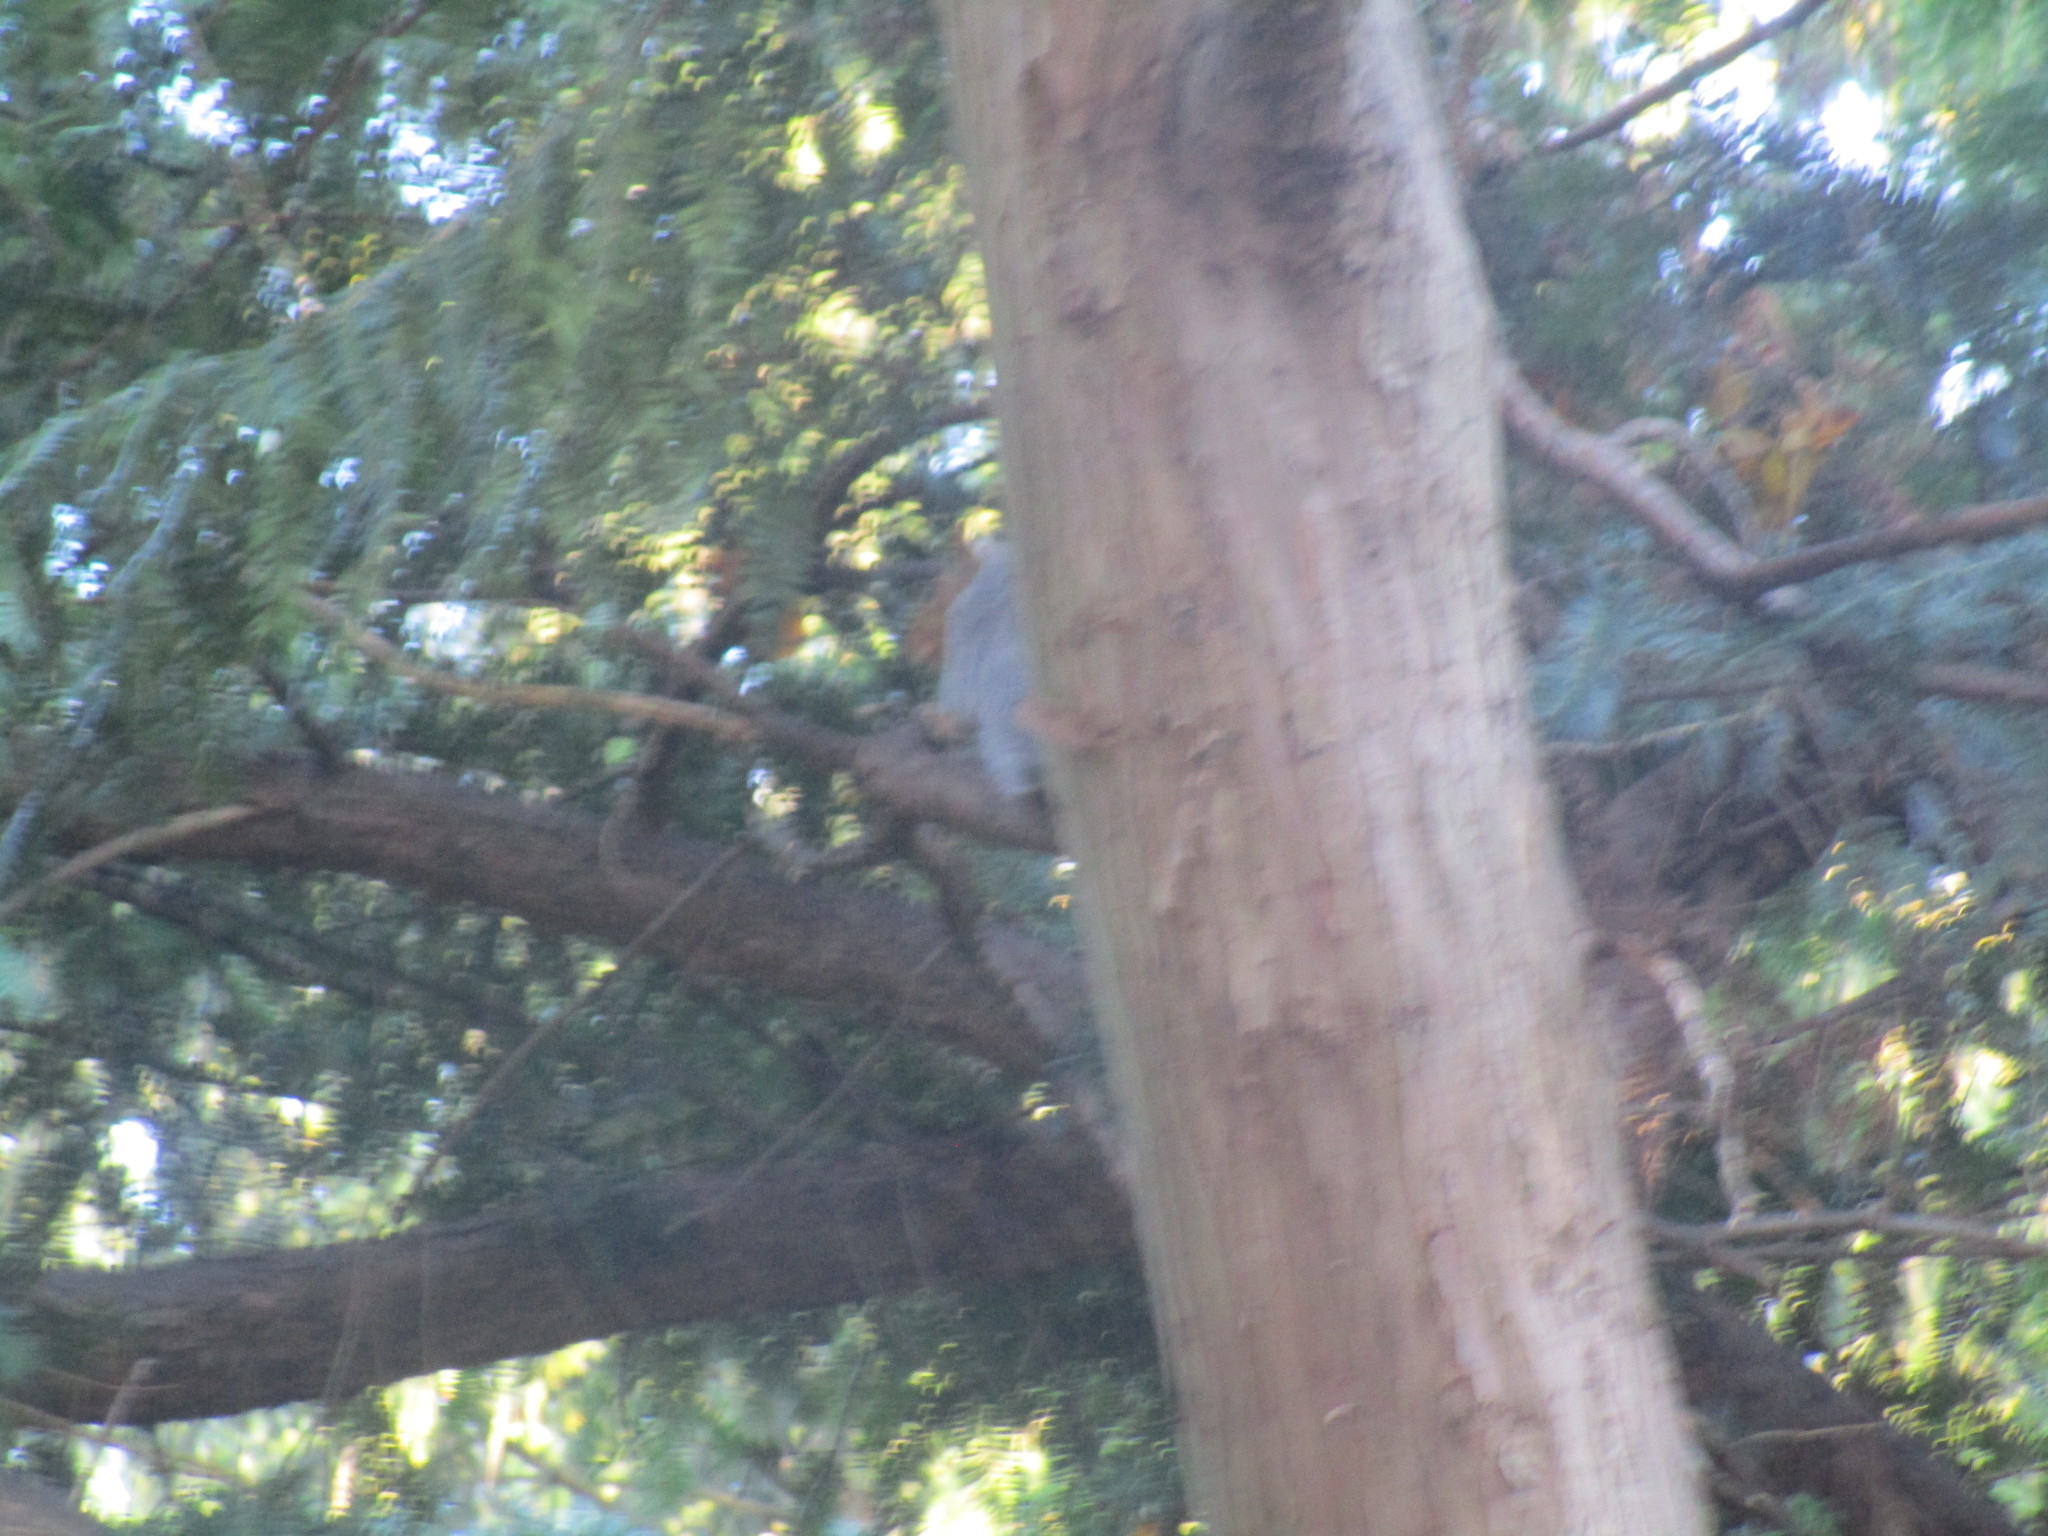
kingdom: Animalia
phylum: Chordata
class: Mammalia
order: Rodentia
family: Sciuridae
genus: Sciurus
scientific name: Sciurus carolinensis
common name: Eastern gray squirrel
